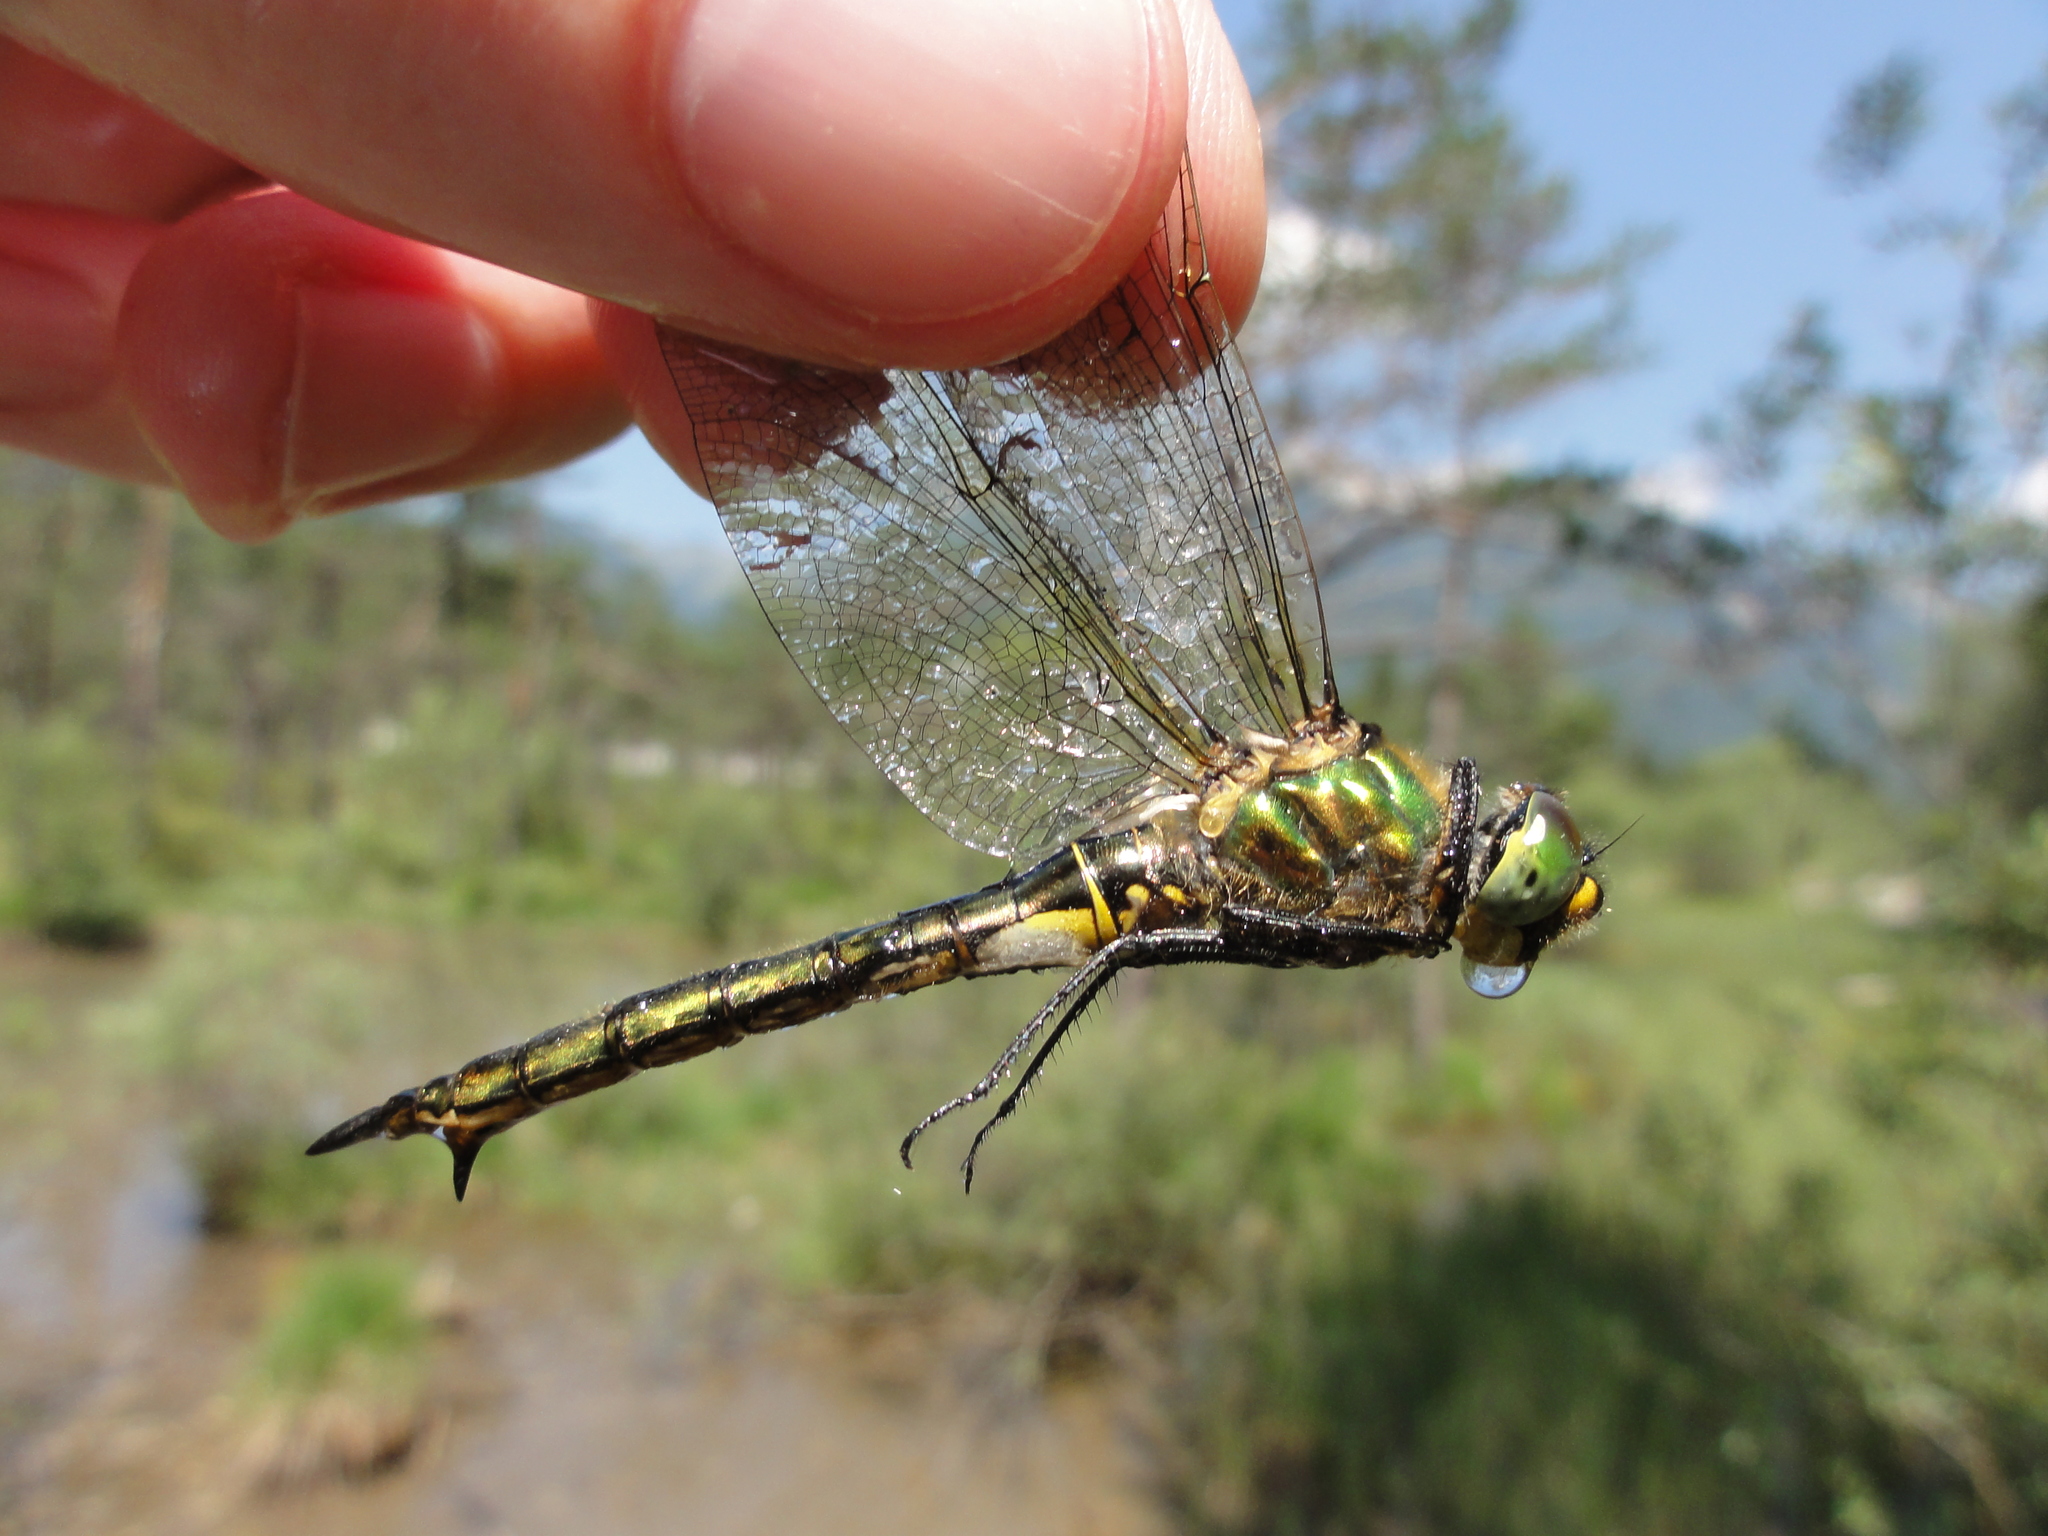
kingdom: Animalia
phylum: Arthropoda
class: Insecta
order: Odonata
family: Corduliidae
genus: Somatochlora
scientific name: Somatochlora metallica
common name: Brilliant emerald
